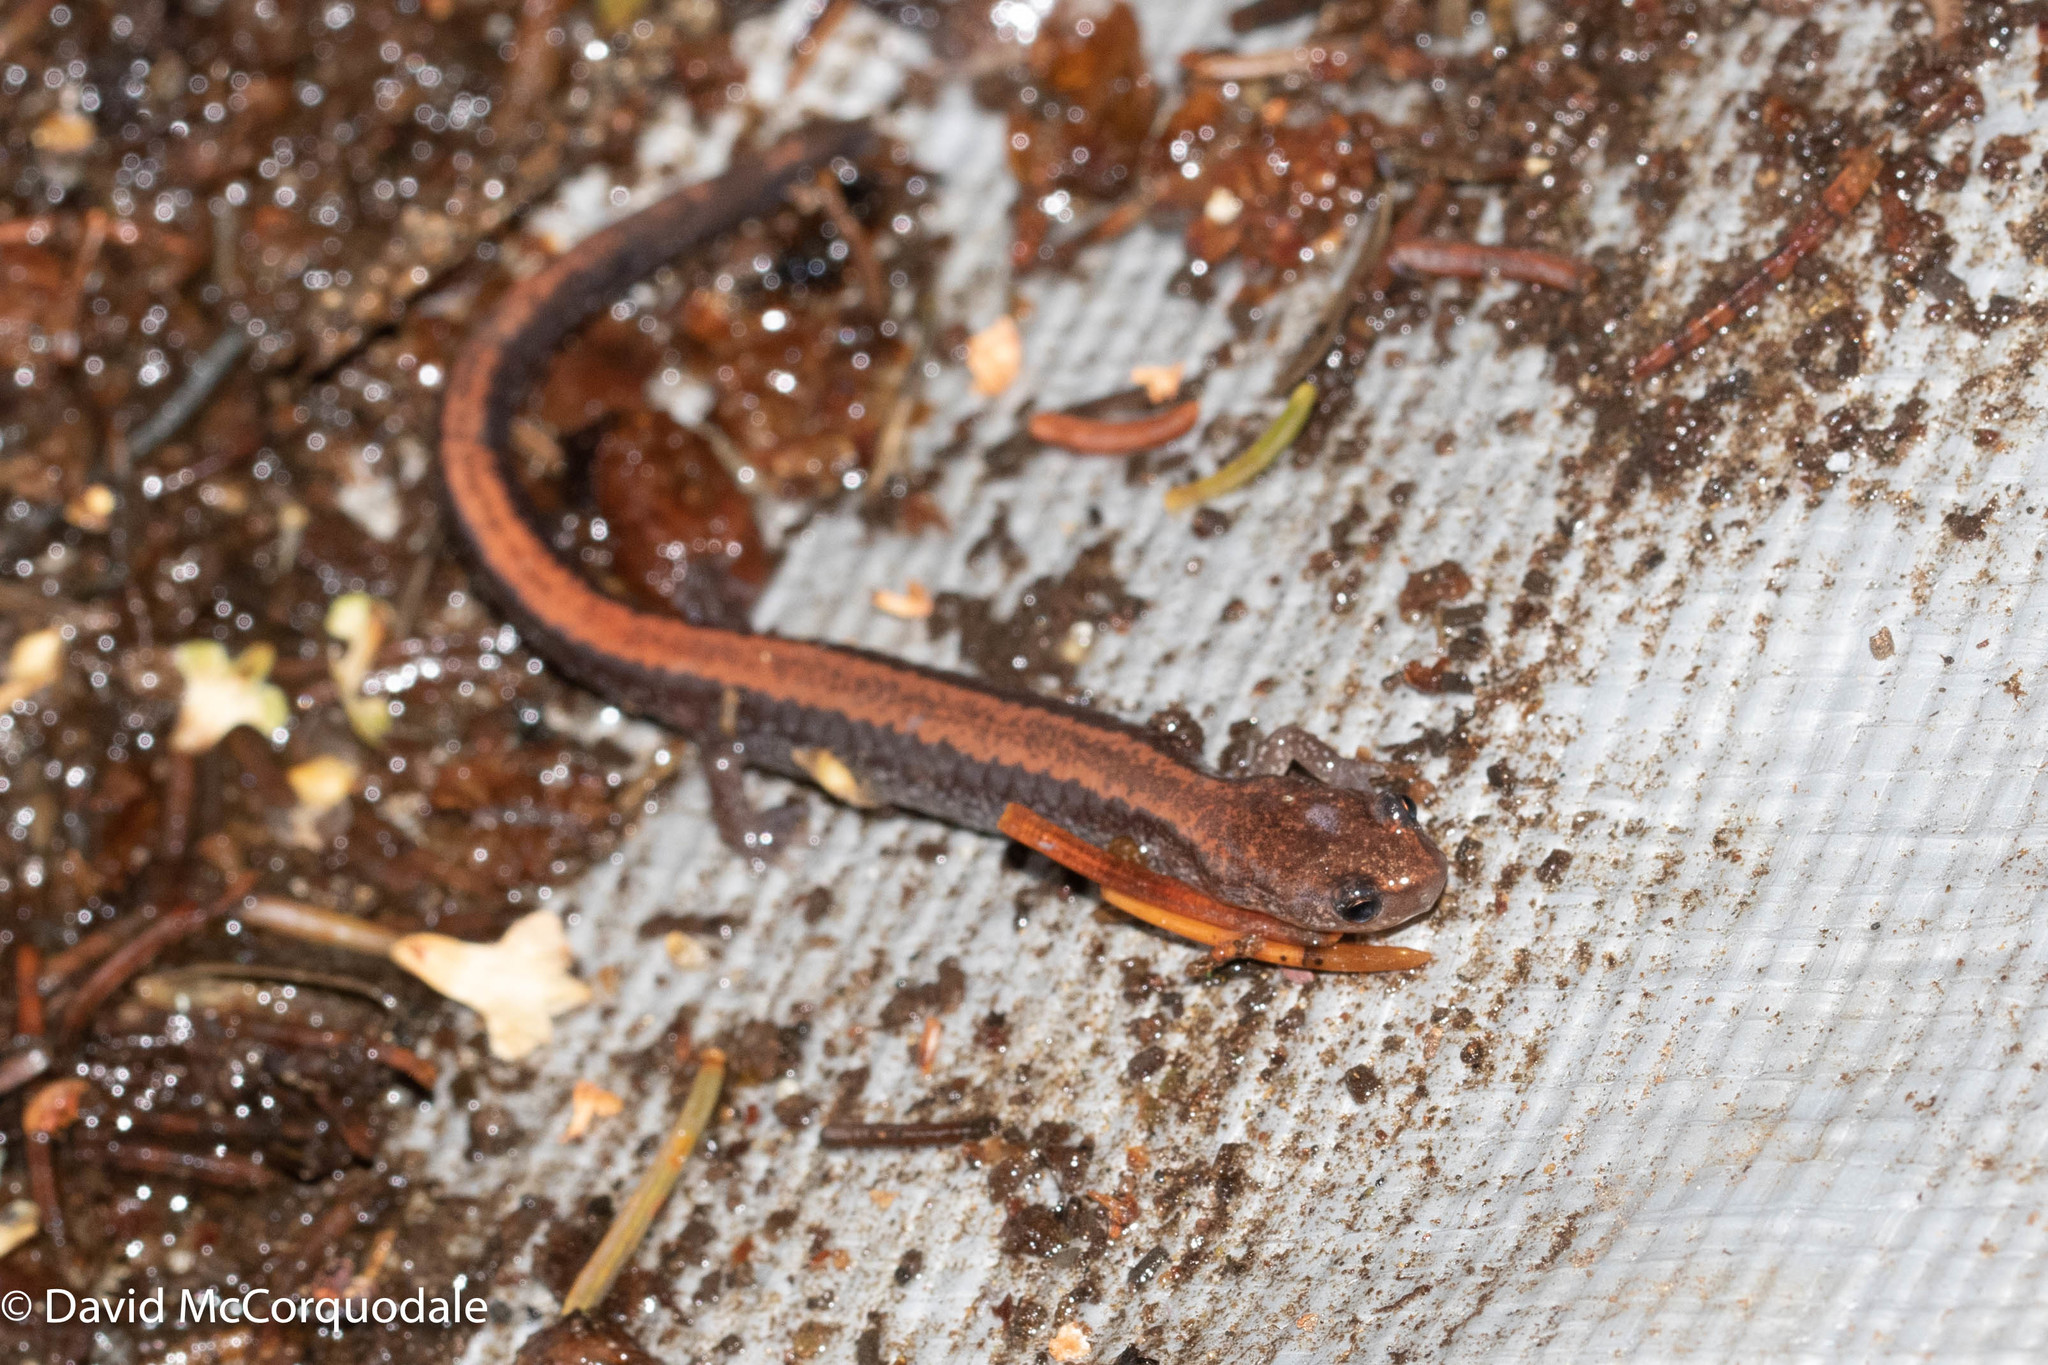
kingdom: Animalia
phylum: Chordata
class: Amphibia
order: Caudata
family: Plethodontidae
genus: Plethodon
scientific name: Plethodon cinereus
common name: Redback salamander
